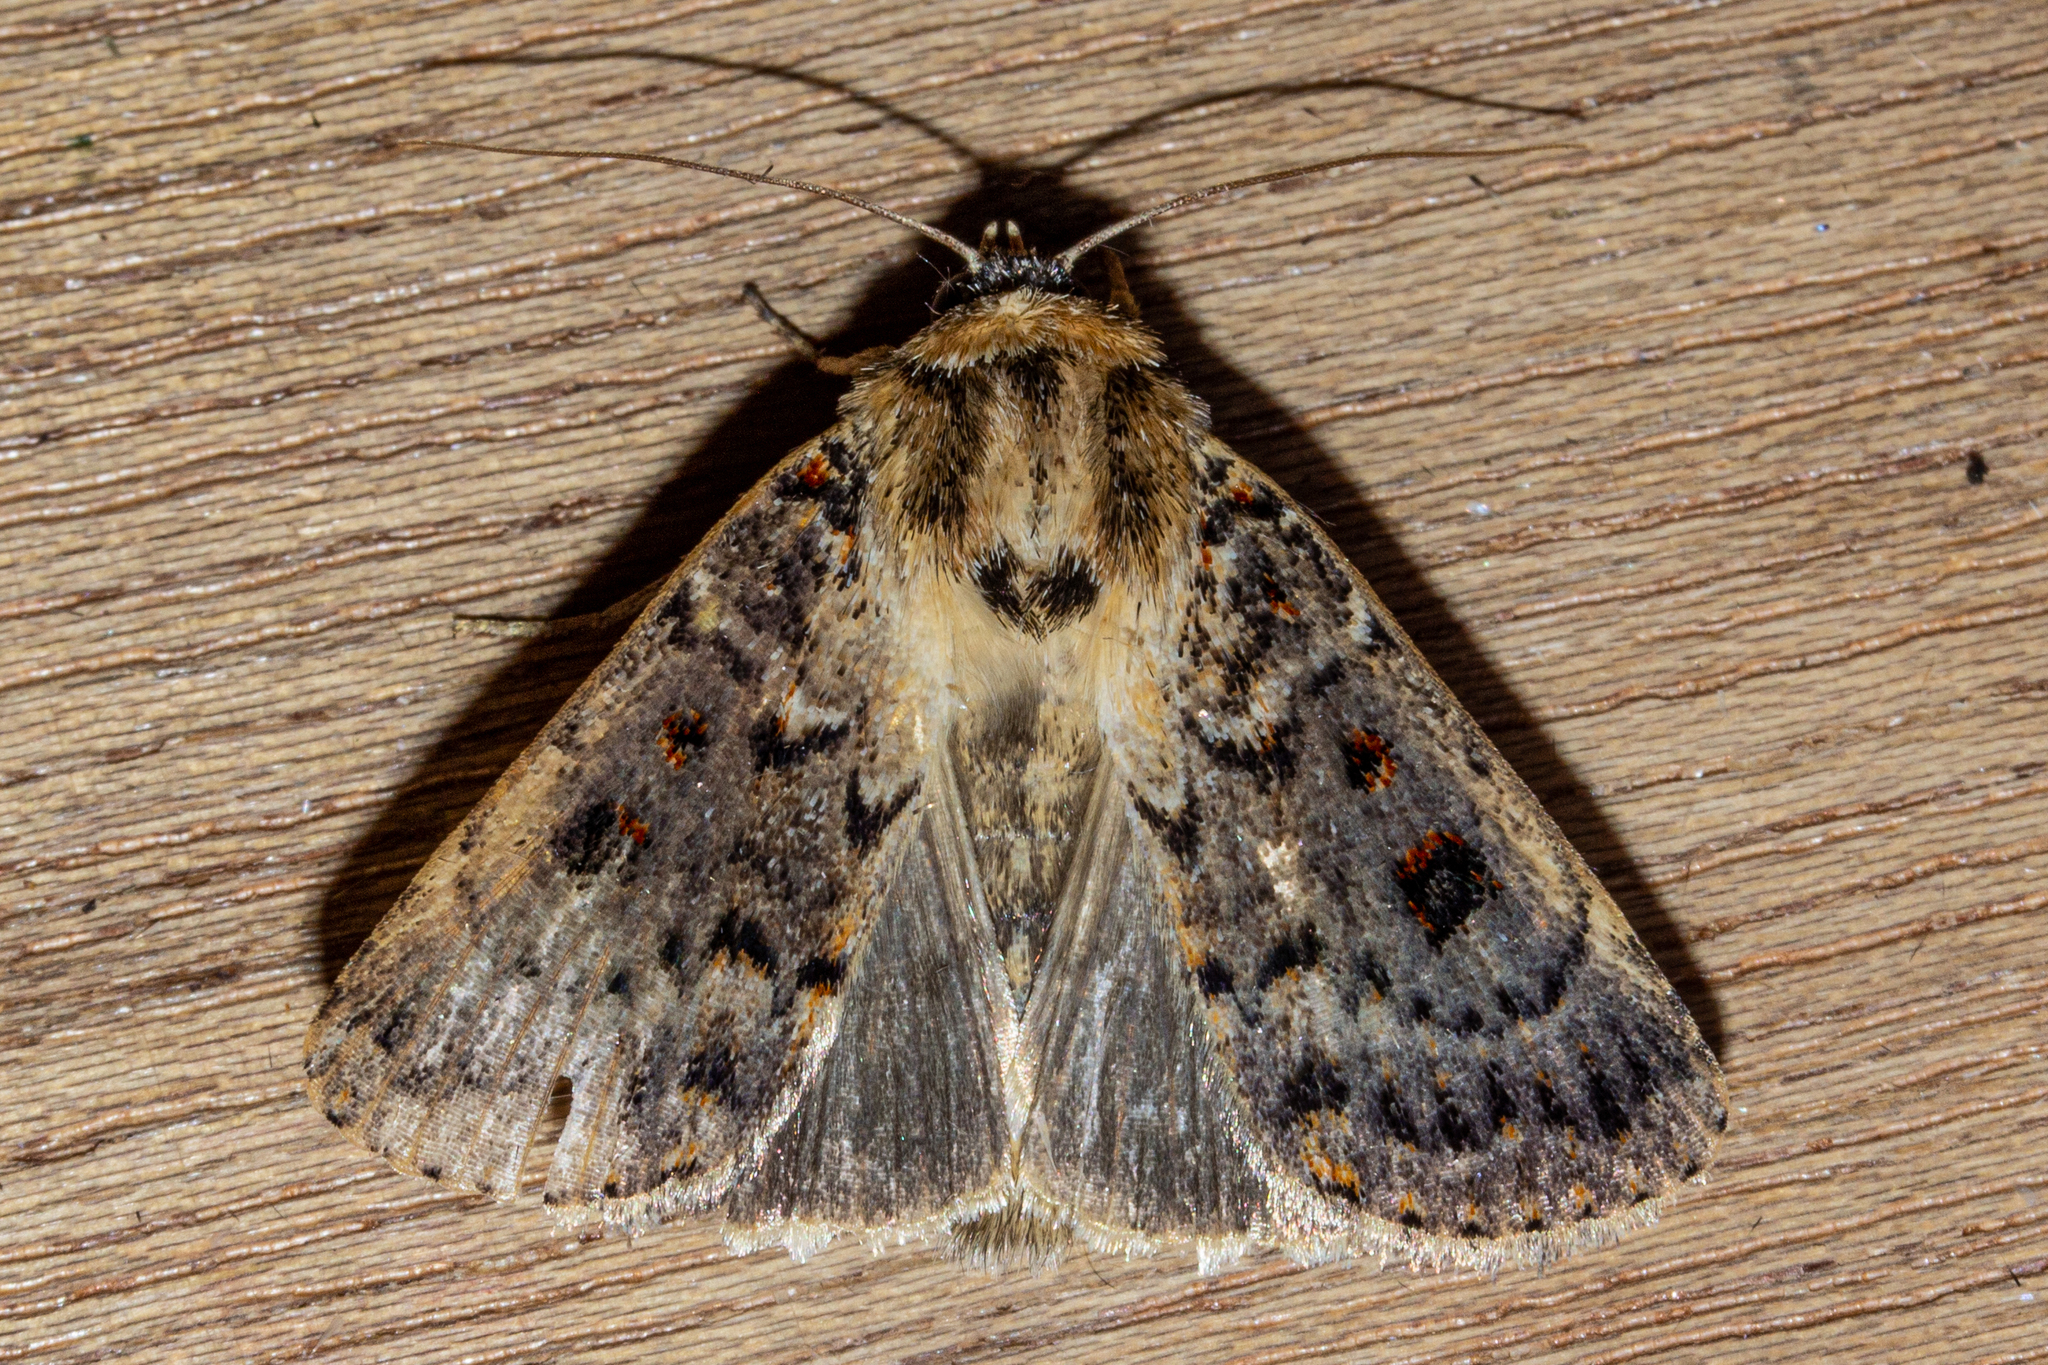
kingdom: Animalia
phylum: Arthropoda
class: Insecta
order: Lepidoptera
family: Noctuidae
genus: Proteuxoa
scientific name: Proteuxoa sanguinipuncta
